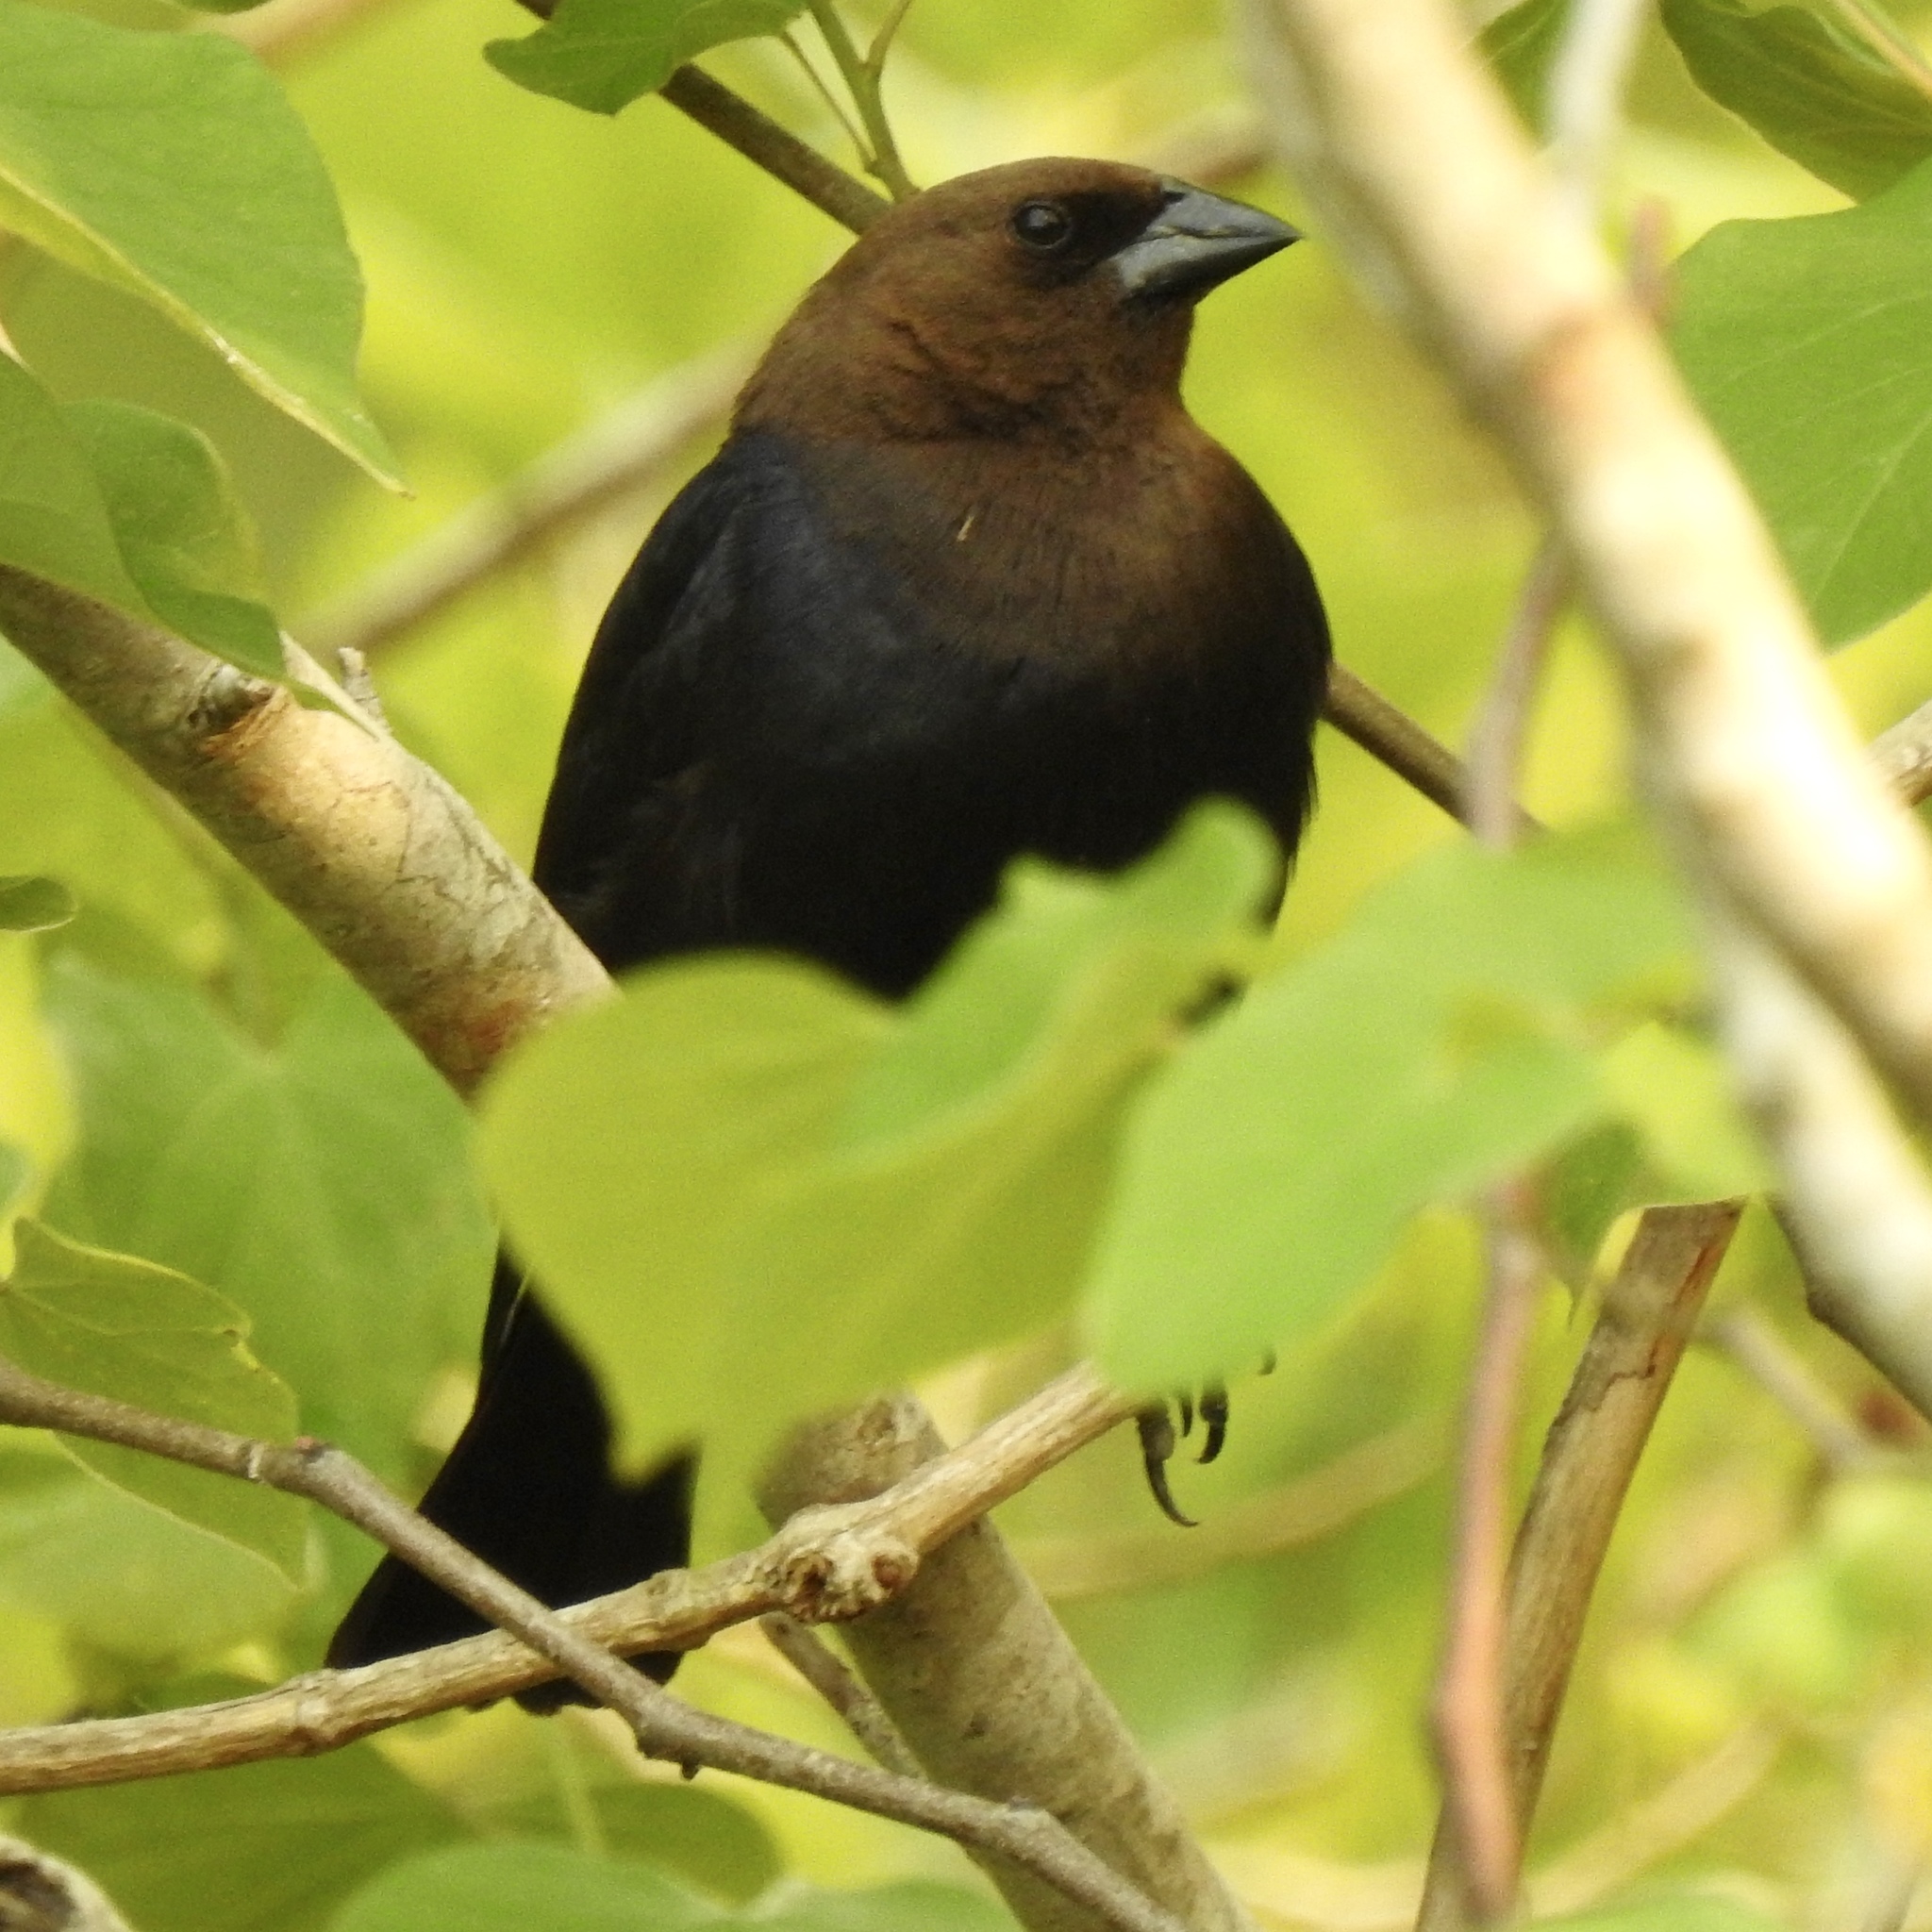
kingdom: Animalia
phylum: Chordata
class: Aves
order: Passeriformes
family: Icteridae
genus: Molothrus
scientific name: Molothrus ater
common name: Brown-headed cowbird
